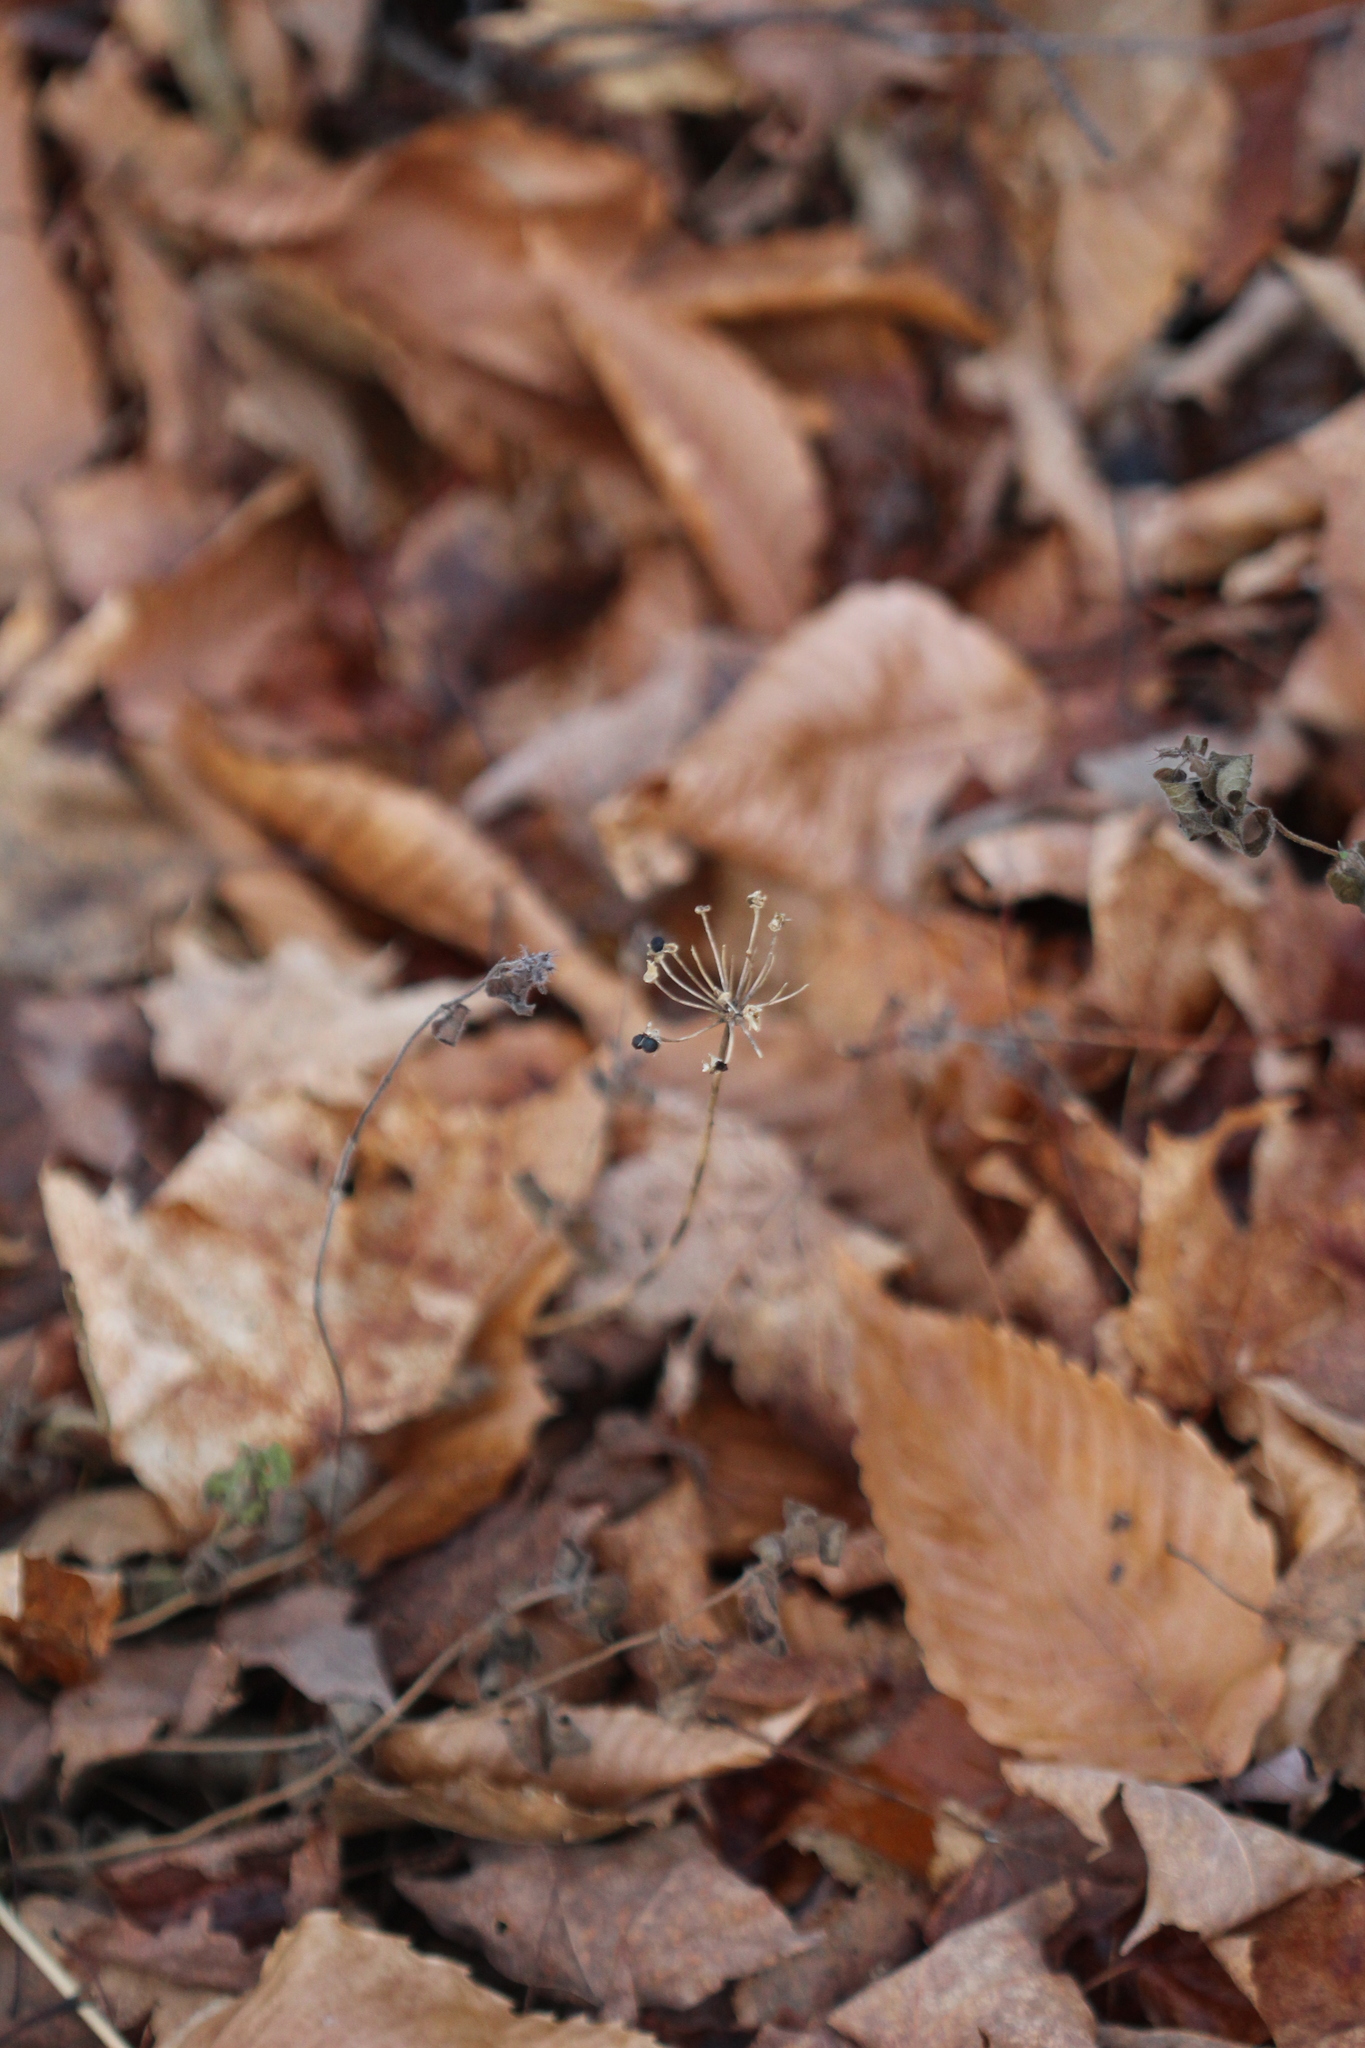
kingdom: Plantae
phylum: Tracheophyta
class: Liliopsida
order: Asparagales
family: Amaryllidaceae
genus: Allium
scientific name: Allium tricoccum
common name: Ramp
